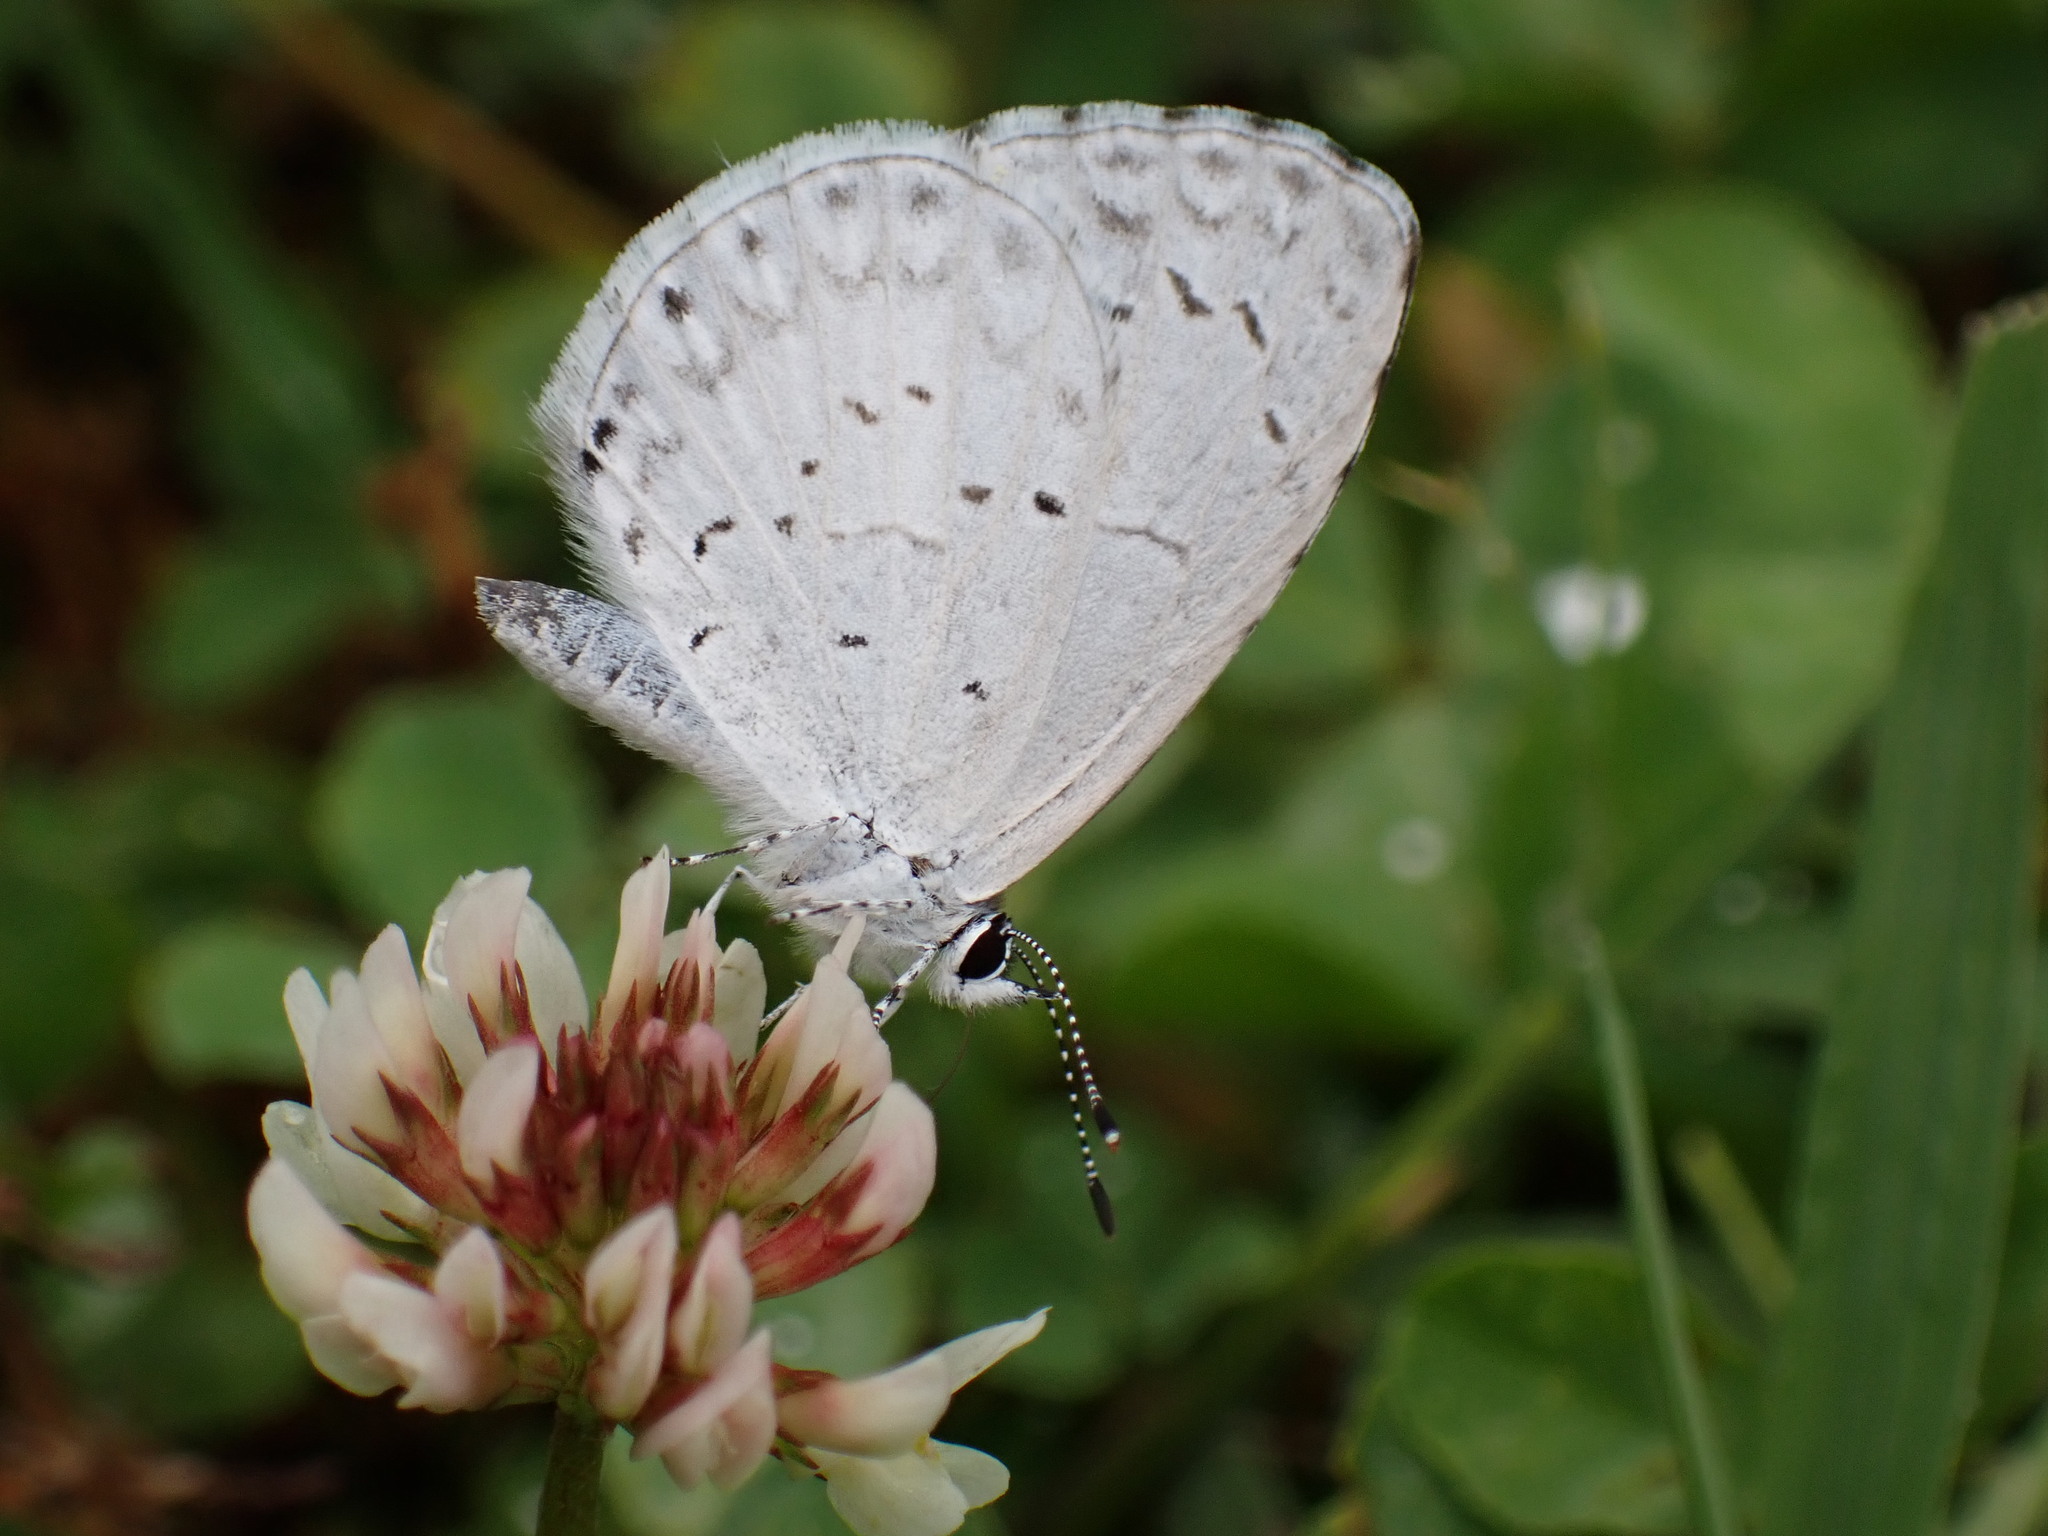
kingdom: Animalia
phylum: Arthropoda
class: Insecta
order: Lepidoptera
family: Lycaenidae
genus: Cyaniris
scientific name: Cyaniris neglecta
